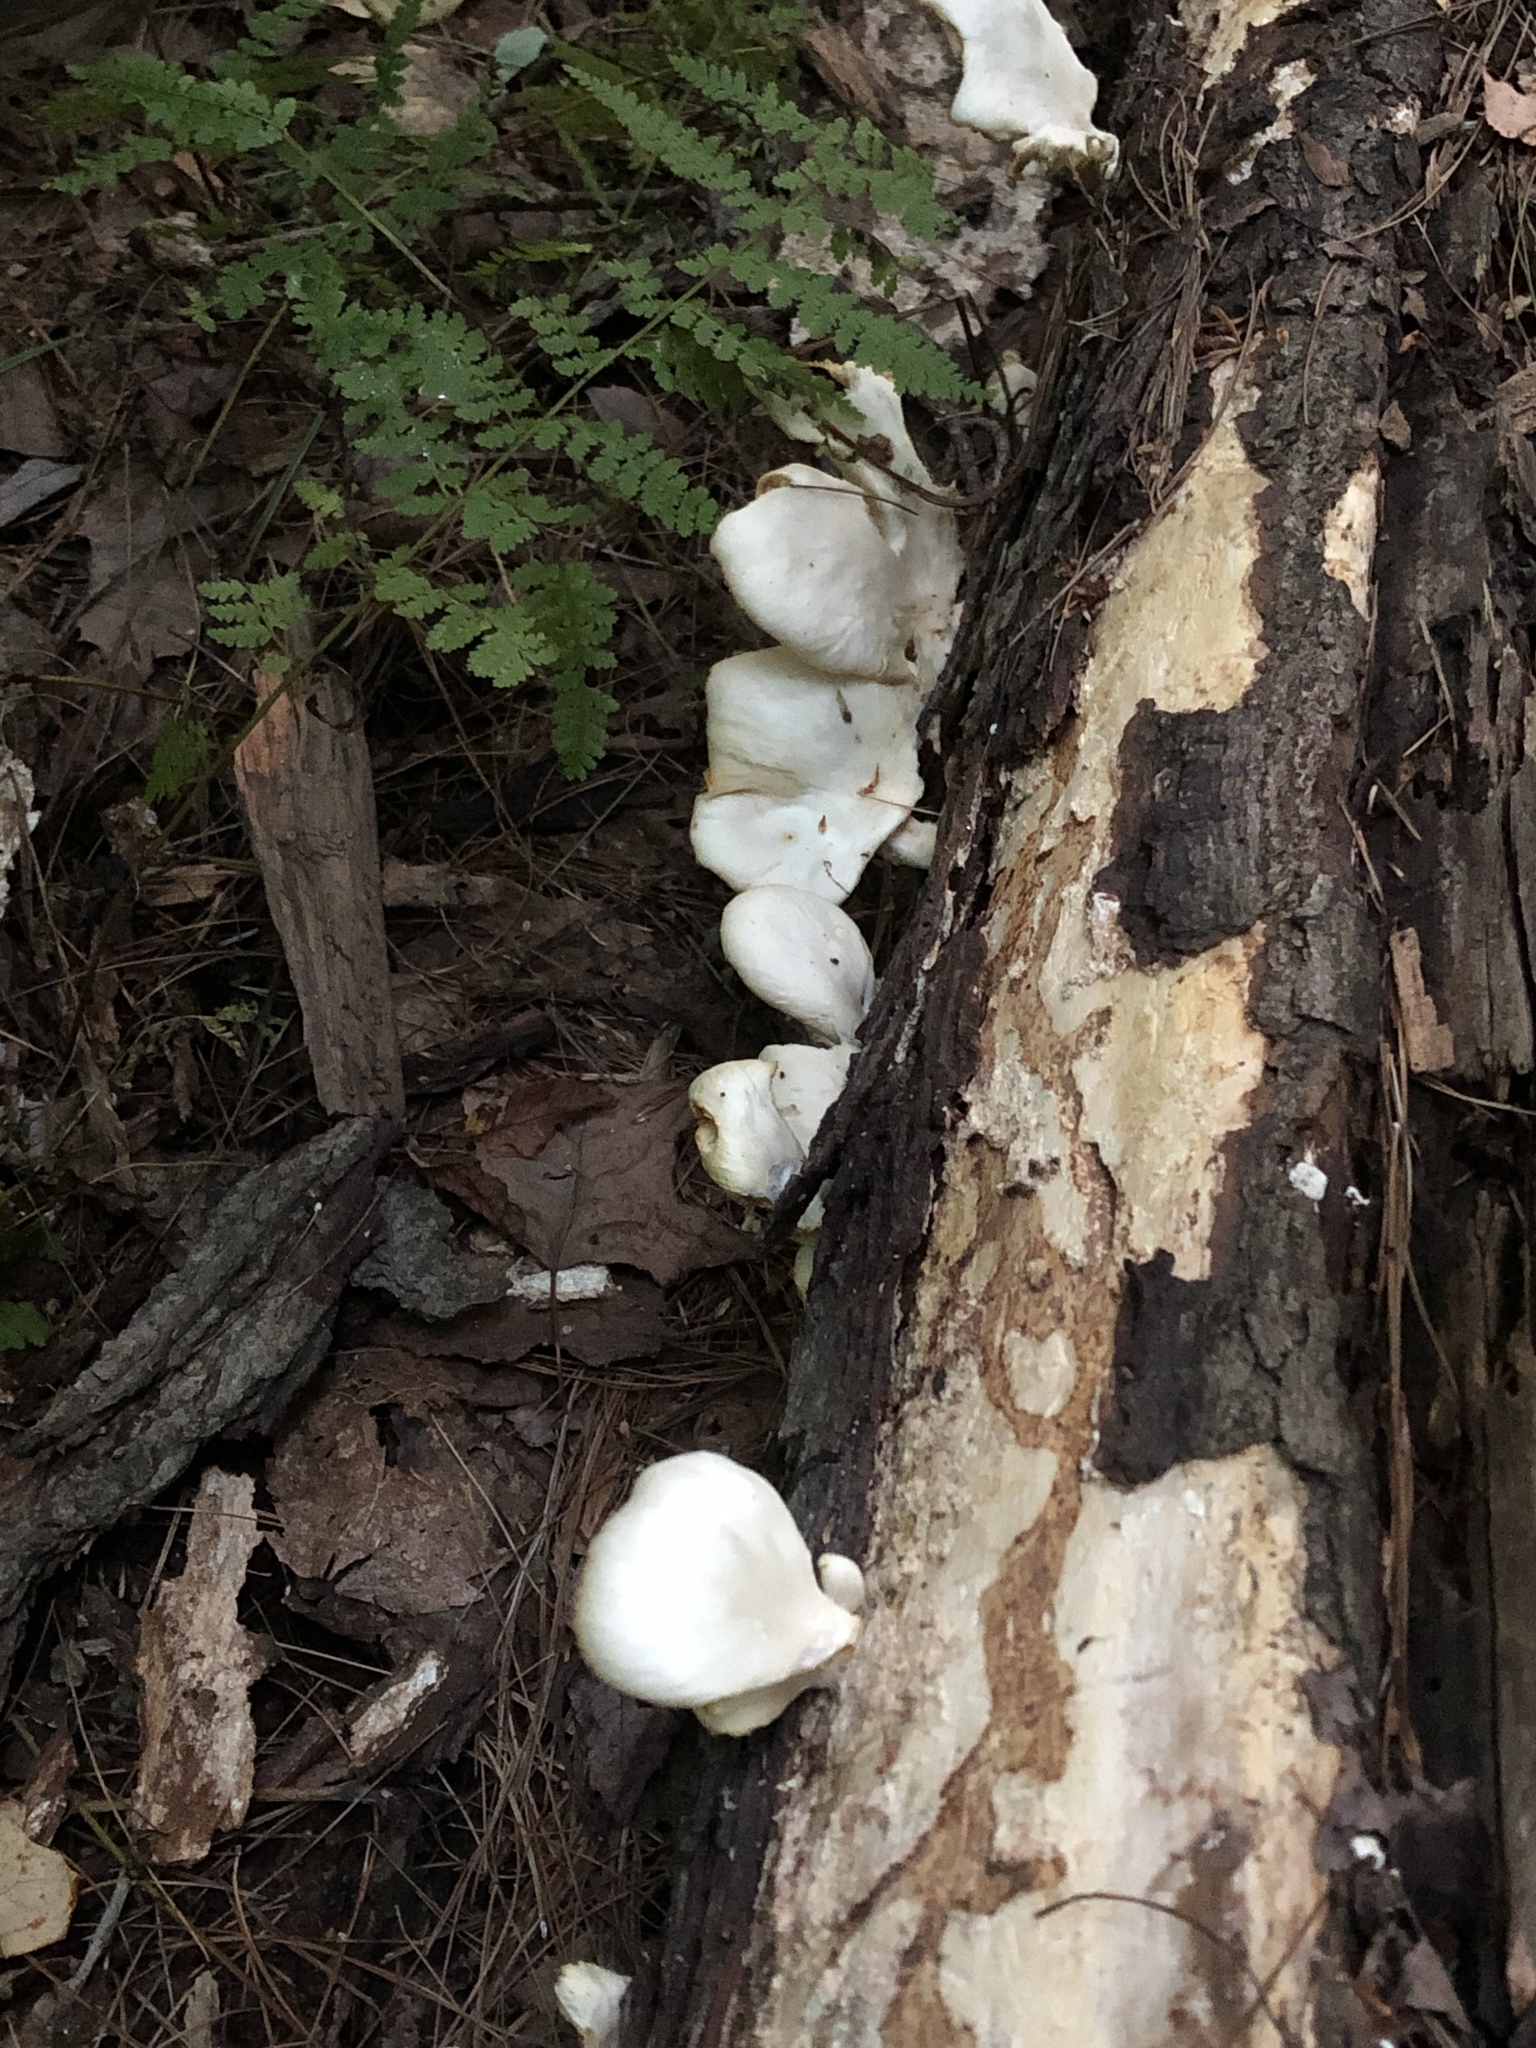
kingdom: Fungi
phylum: Basidiomycota
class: Agaricomycetes
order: Agaricales
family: Pleurotaceae
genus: Pleurotus
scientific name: Pleurotus pulmonarius
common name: Pale oyster
